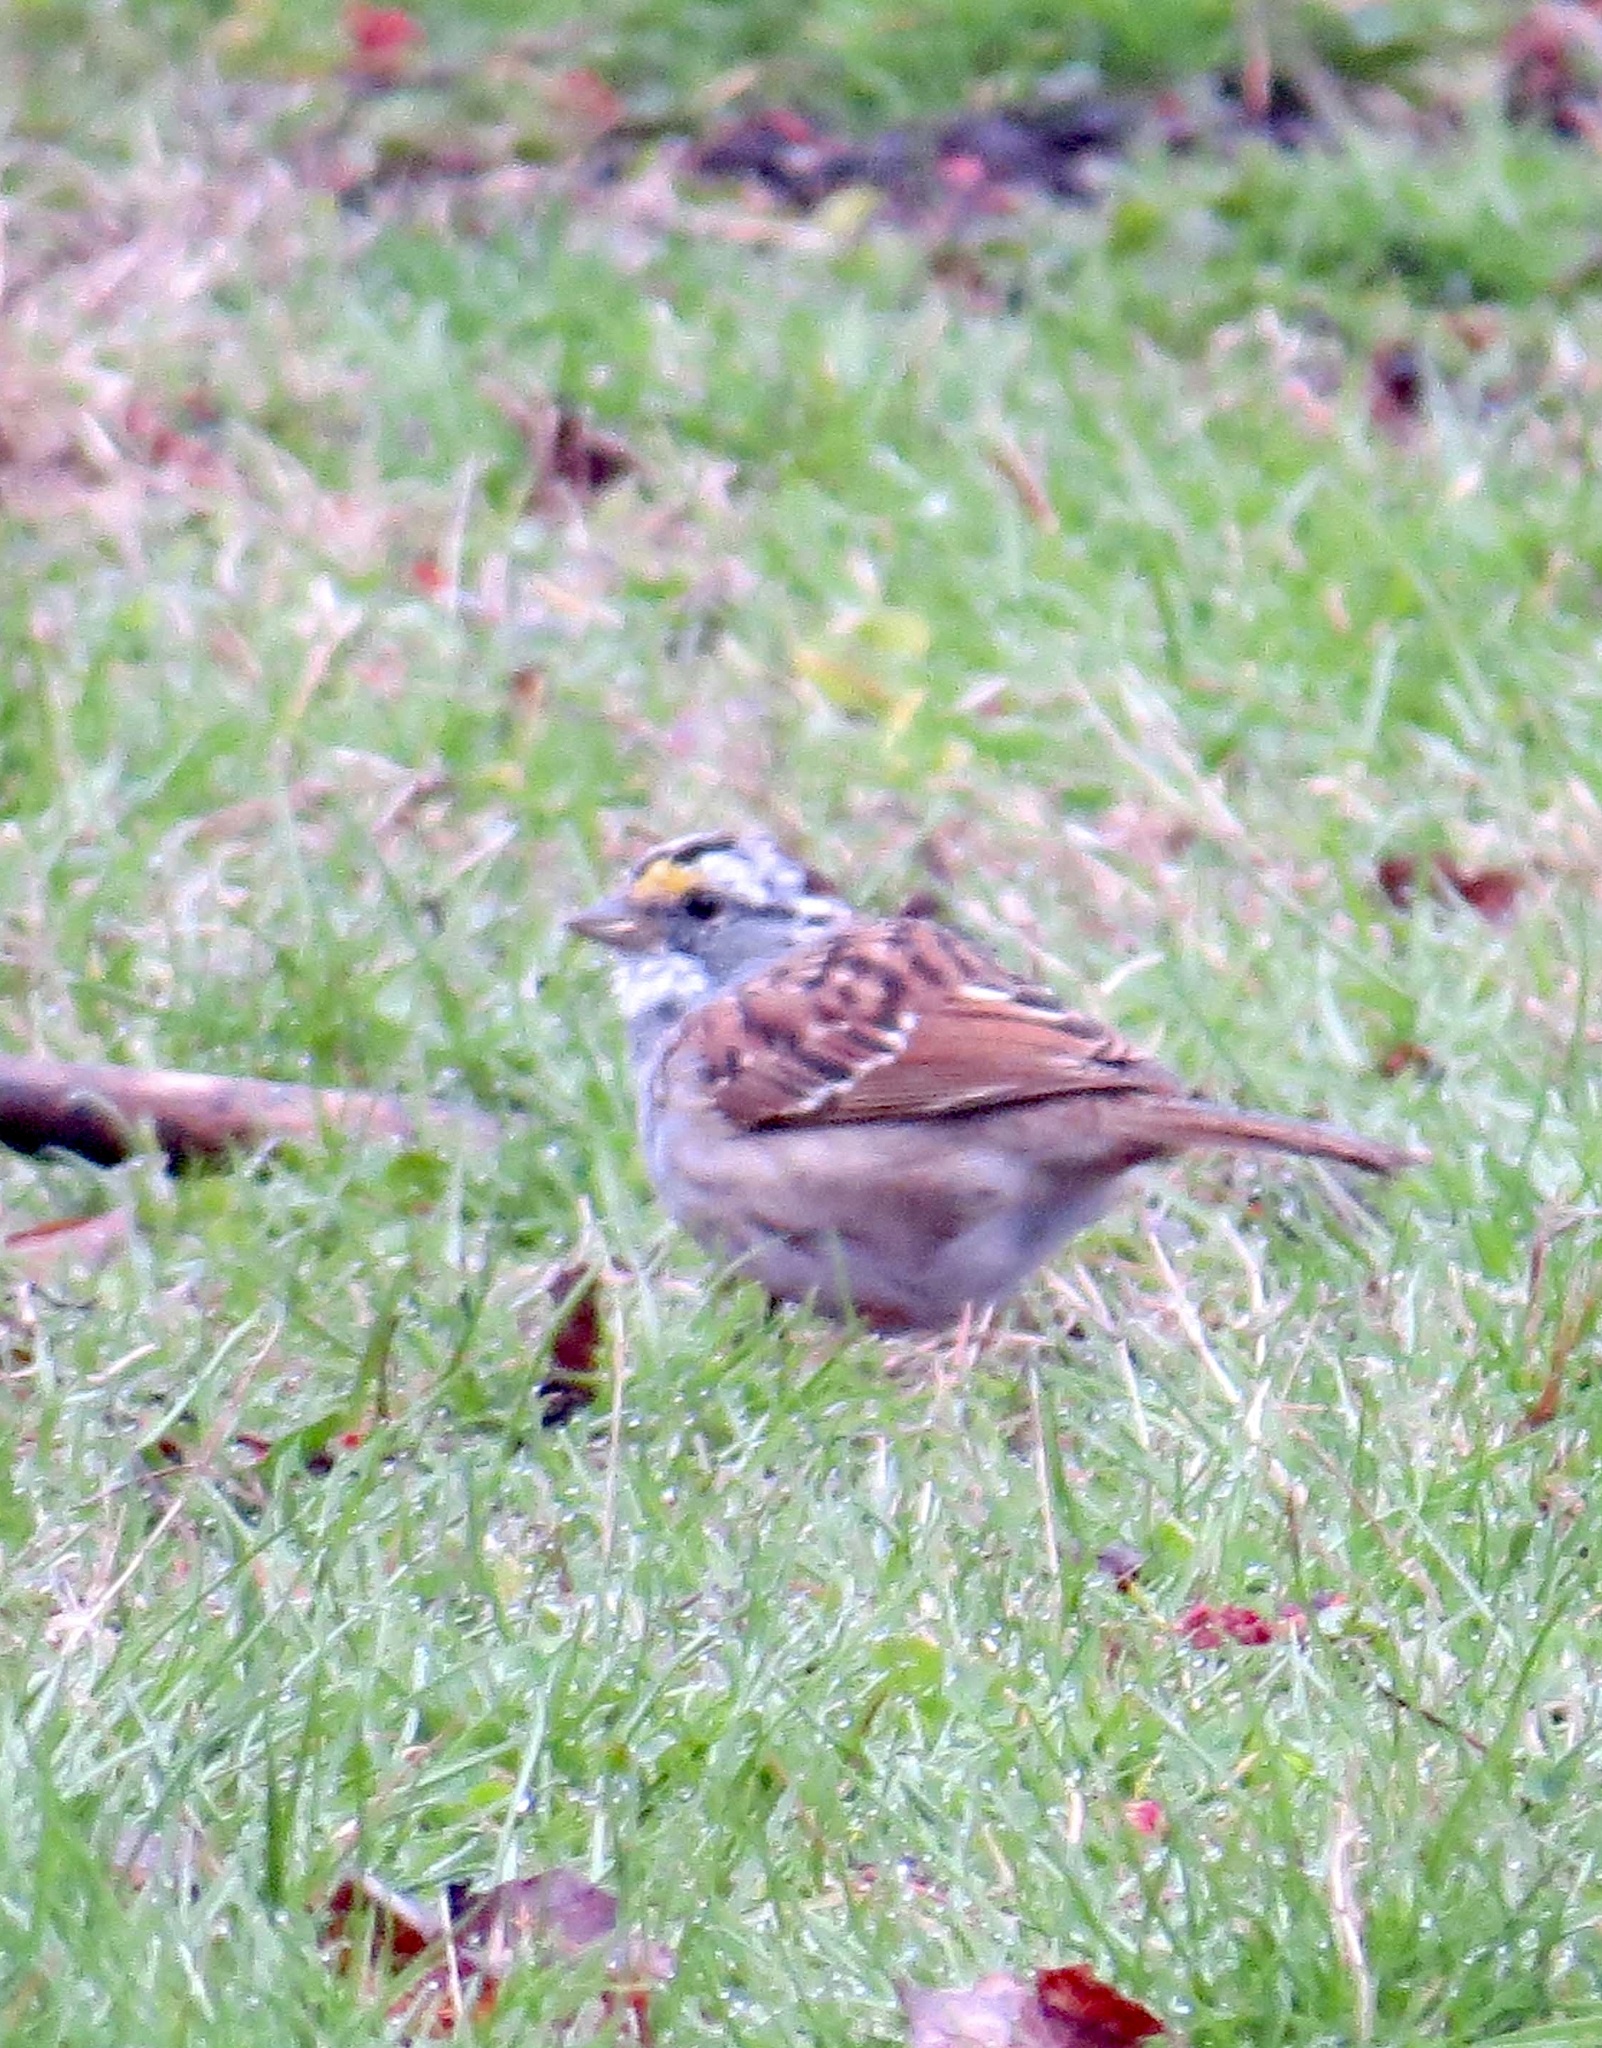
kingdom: Animalia
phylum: Chordata
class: Aves
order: Passeriformes
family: Passerellidae
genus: Zonotrichia
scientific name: Zonotrichia albicollis
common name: White-throated sparrow
